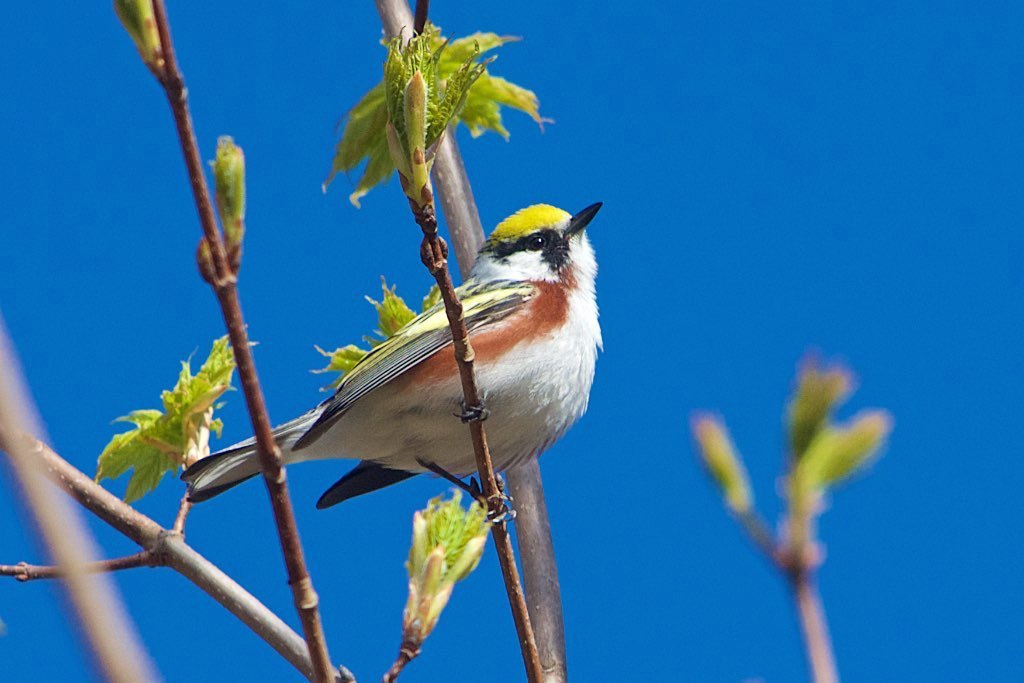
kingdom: Animalia
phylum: Chordata
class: Aves
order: Passeriformes
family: Parulidae
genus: Setophaga
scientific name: Setophaga pensylvanica
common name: Chestnut-sided warbler
